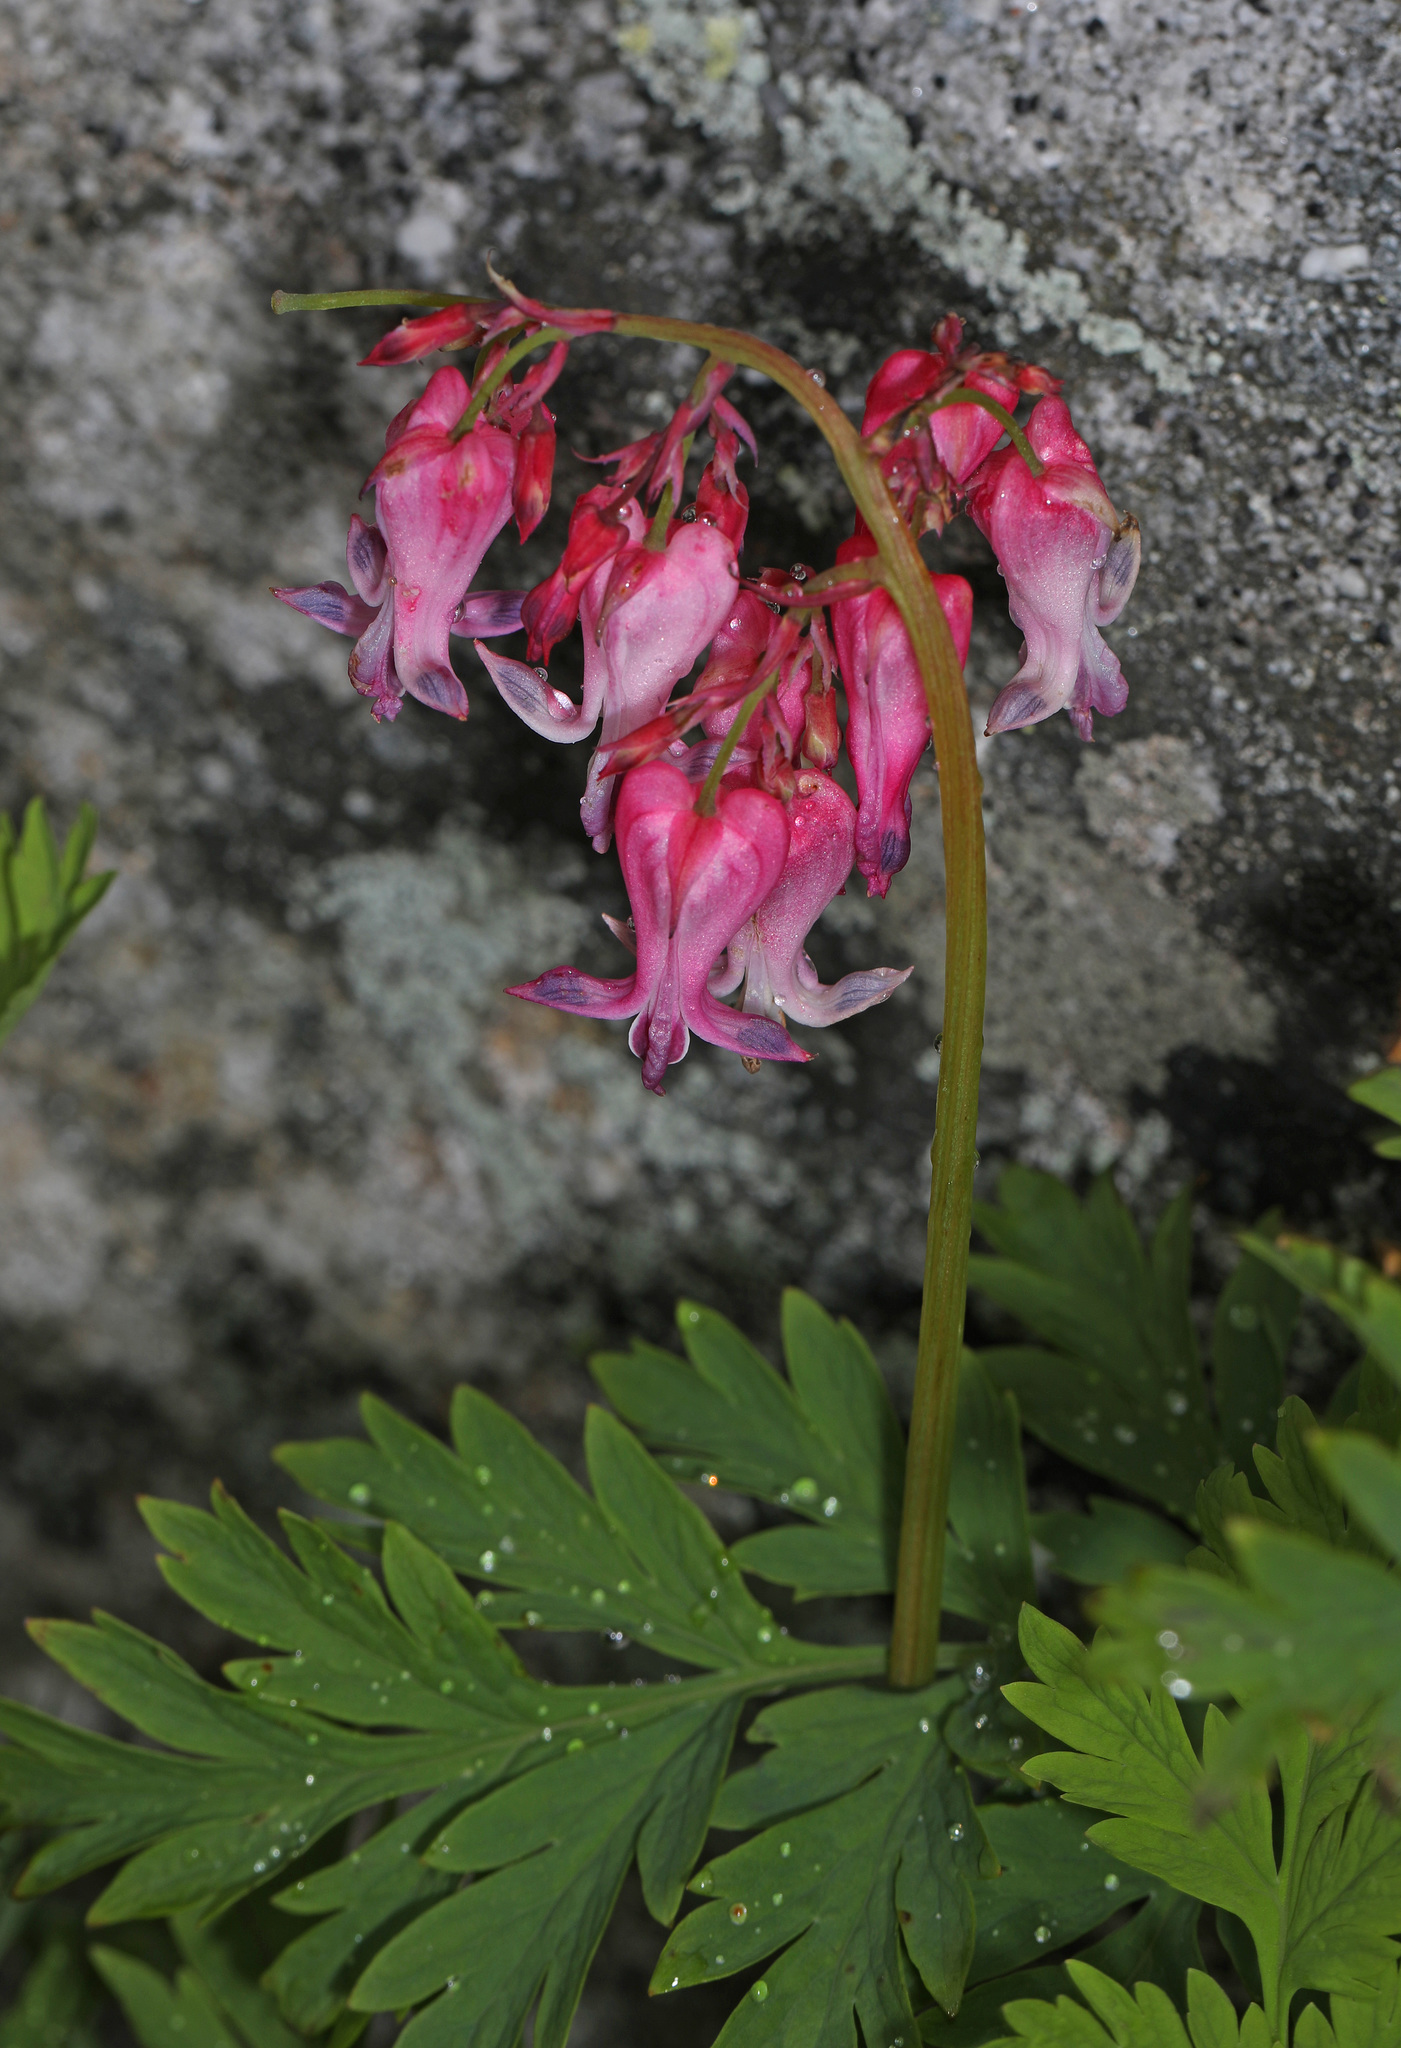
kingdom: Plantae
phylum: Tracheophyta
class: Magnoliopsida
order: Ranunculales
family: Papaveraceae
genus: Dicentra
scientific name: Dicentra eximia
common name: Turkey-corn
